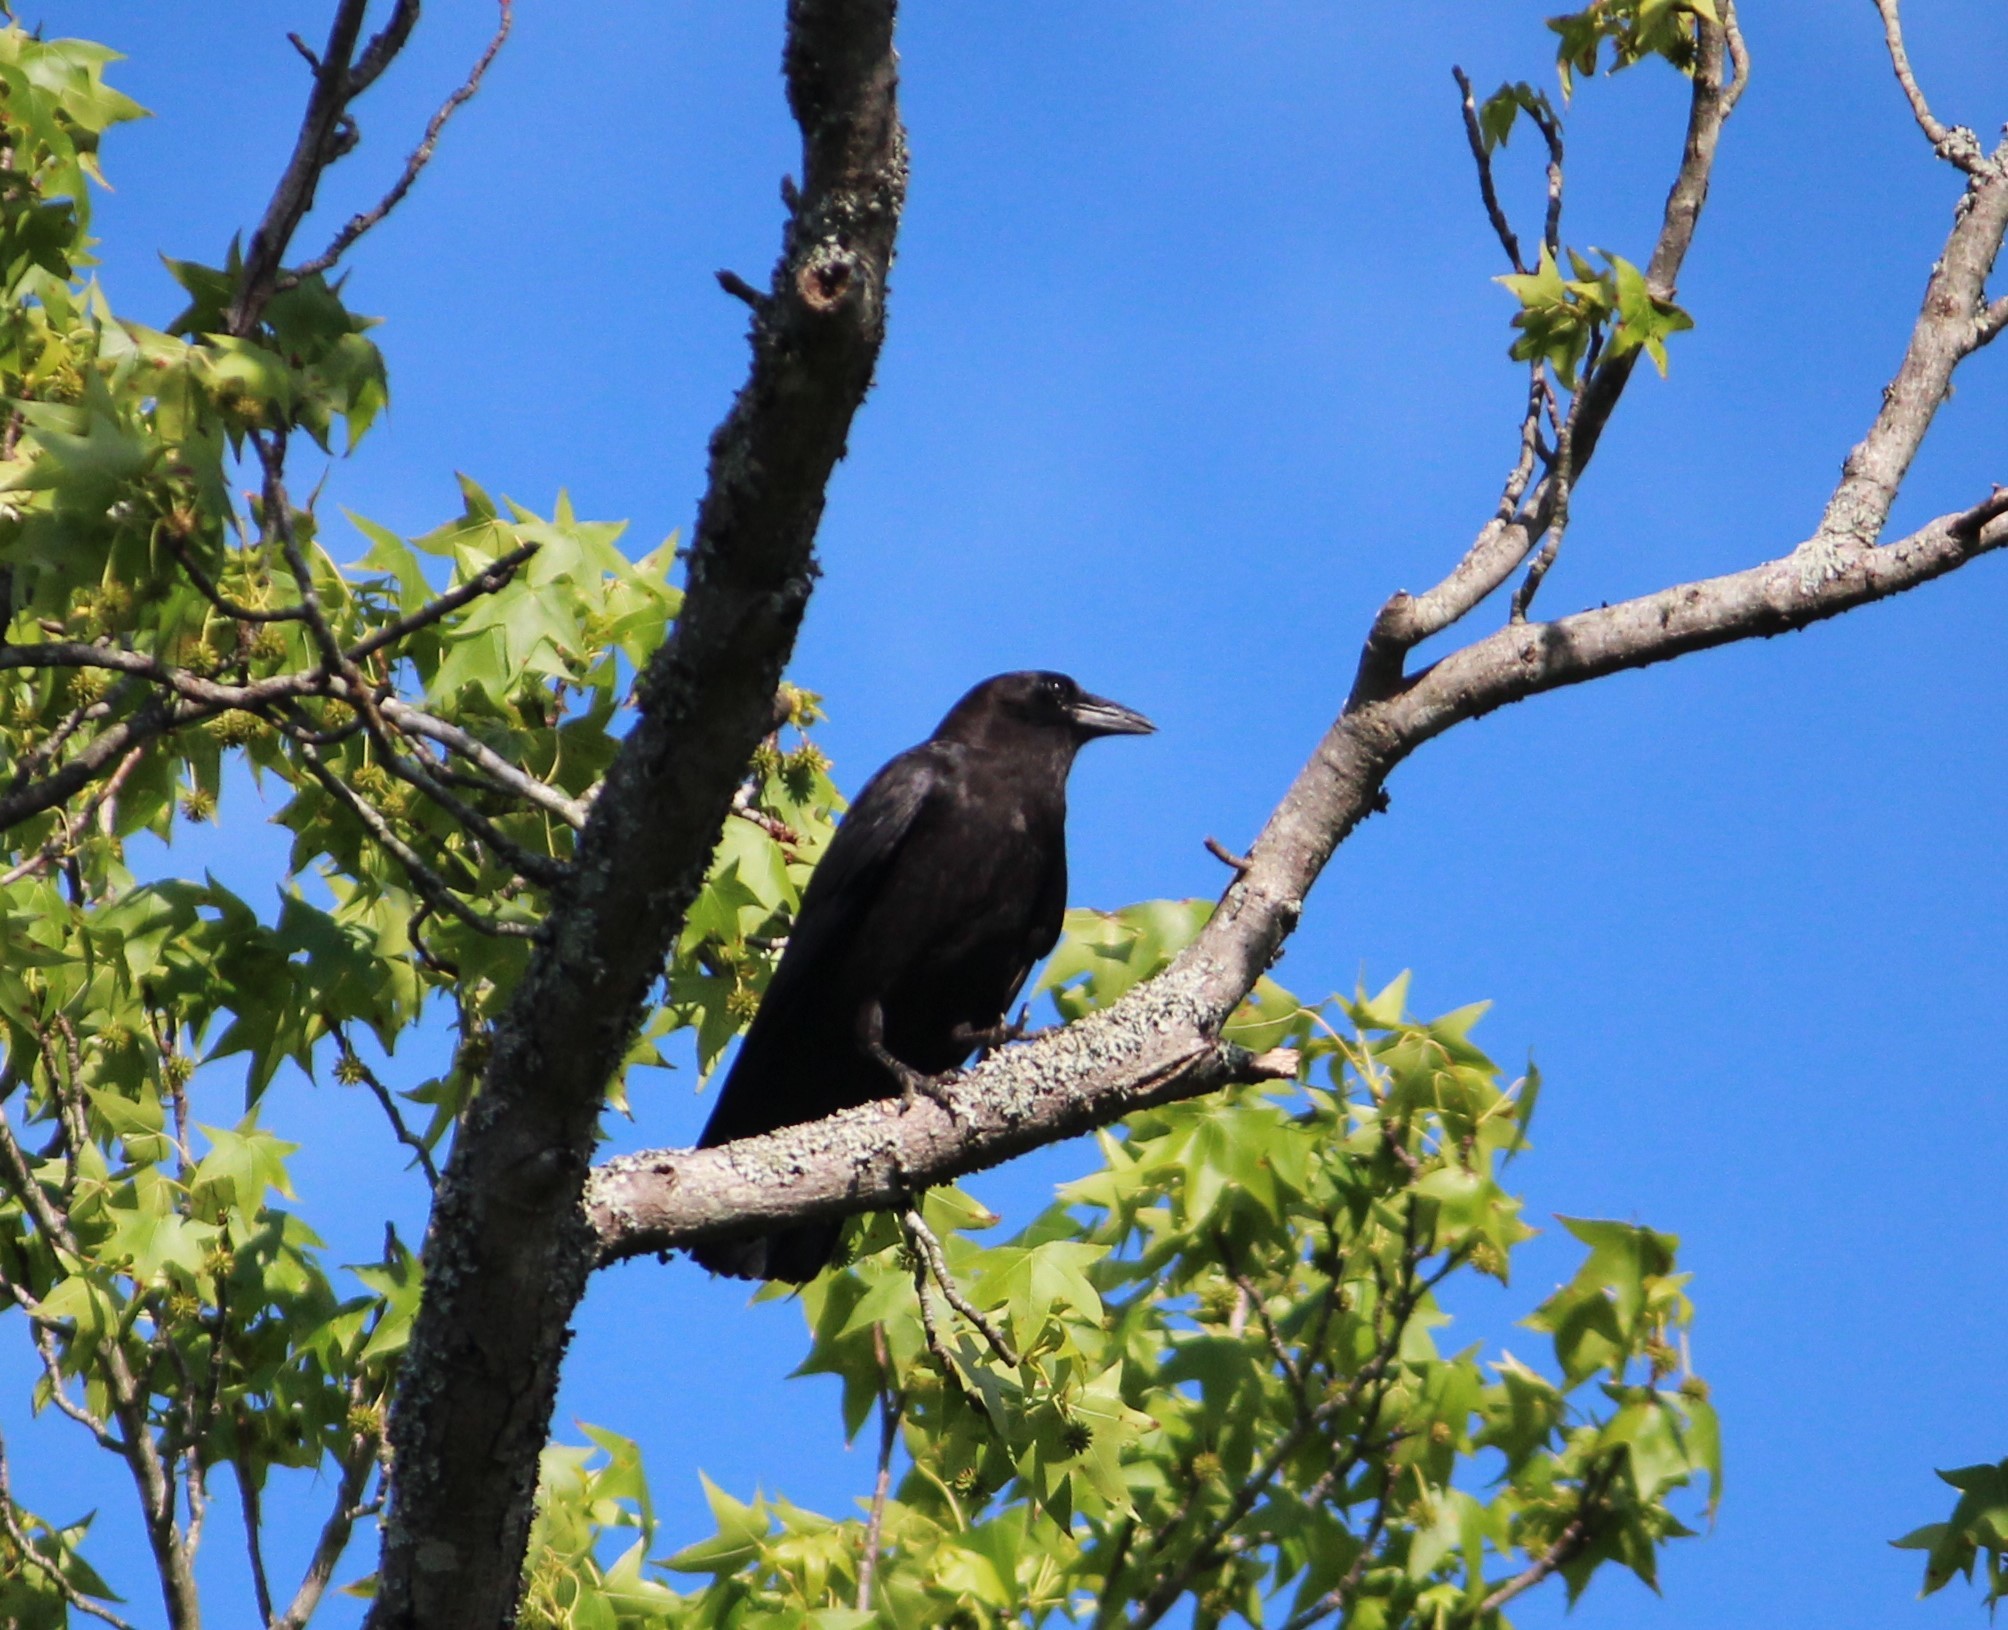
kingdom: Animalia
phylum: Chordata
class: Aves
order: Passeriformes
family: Corvidae
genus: Corvus
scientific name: Corvus brachyrhynchos
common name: American crow
